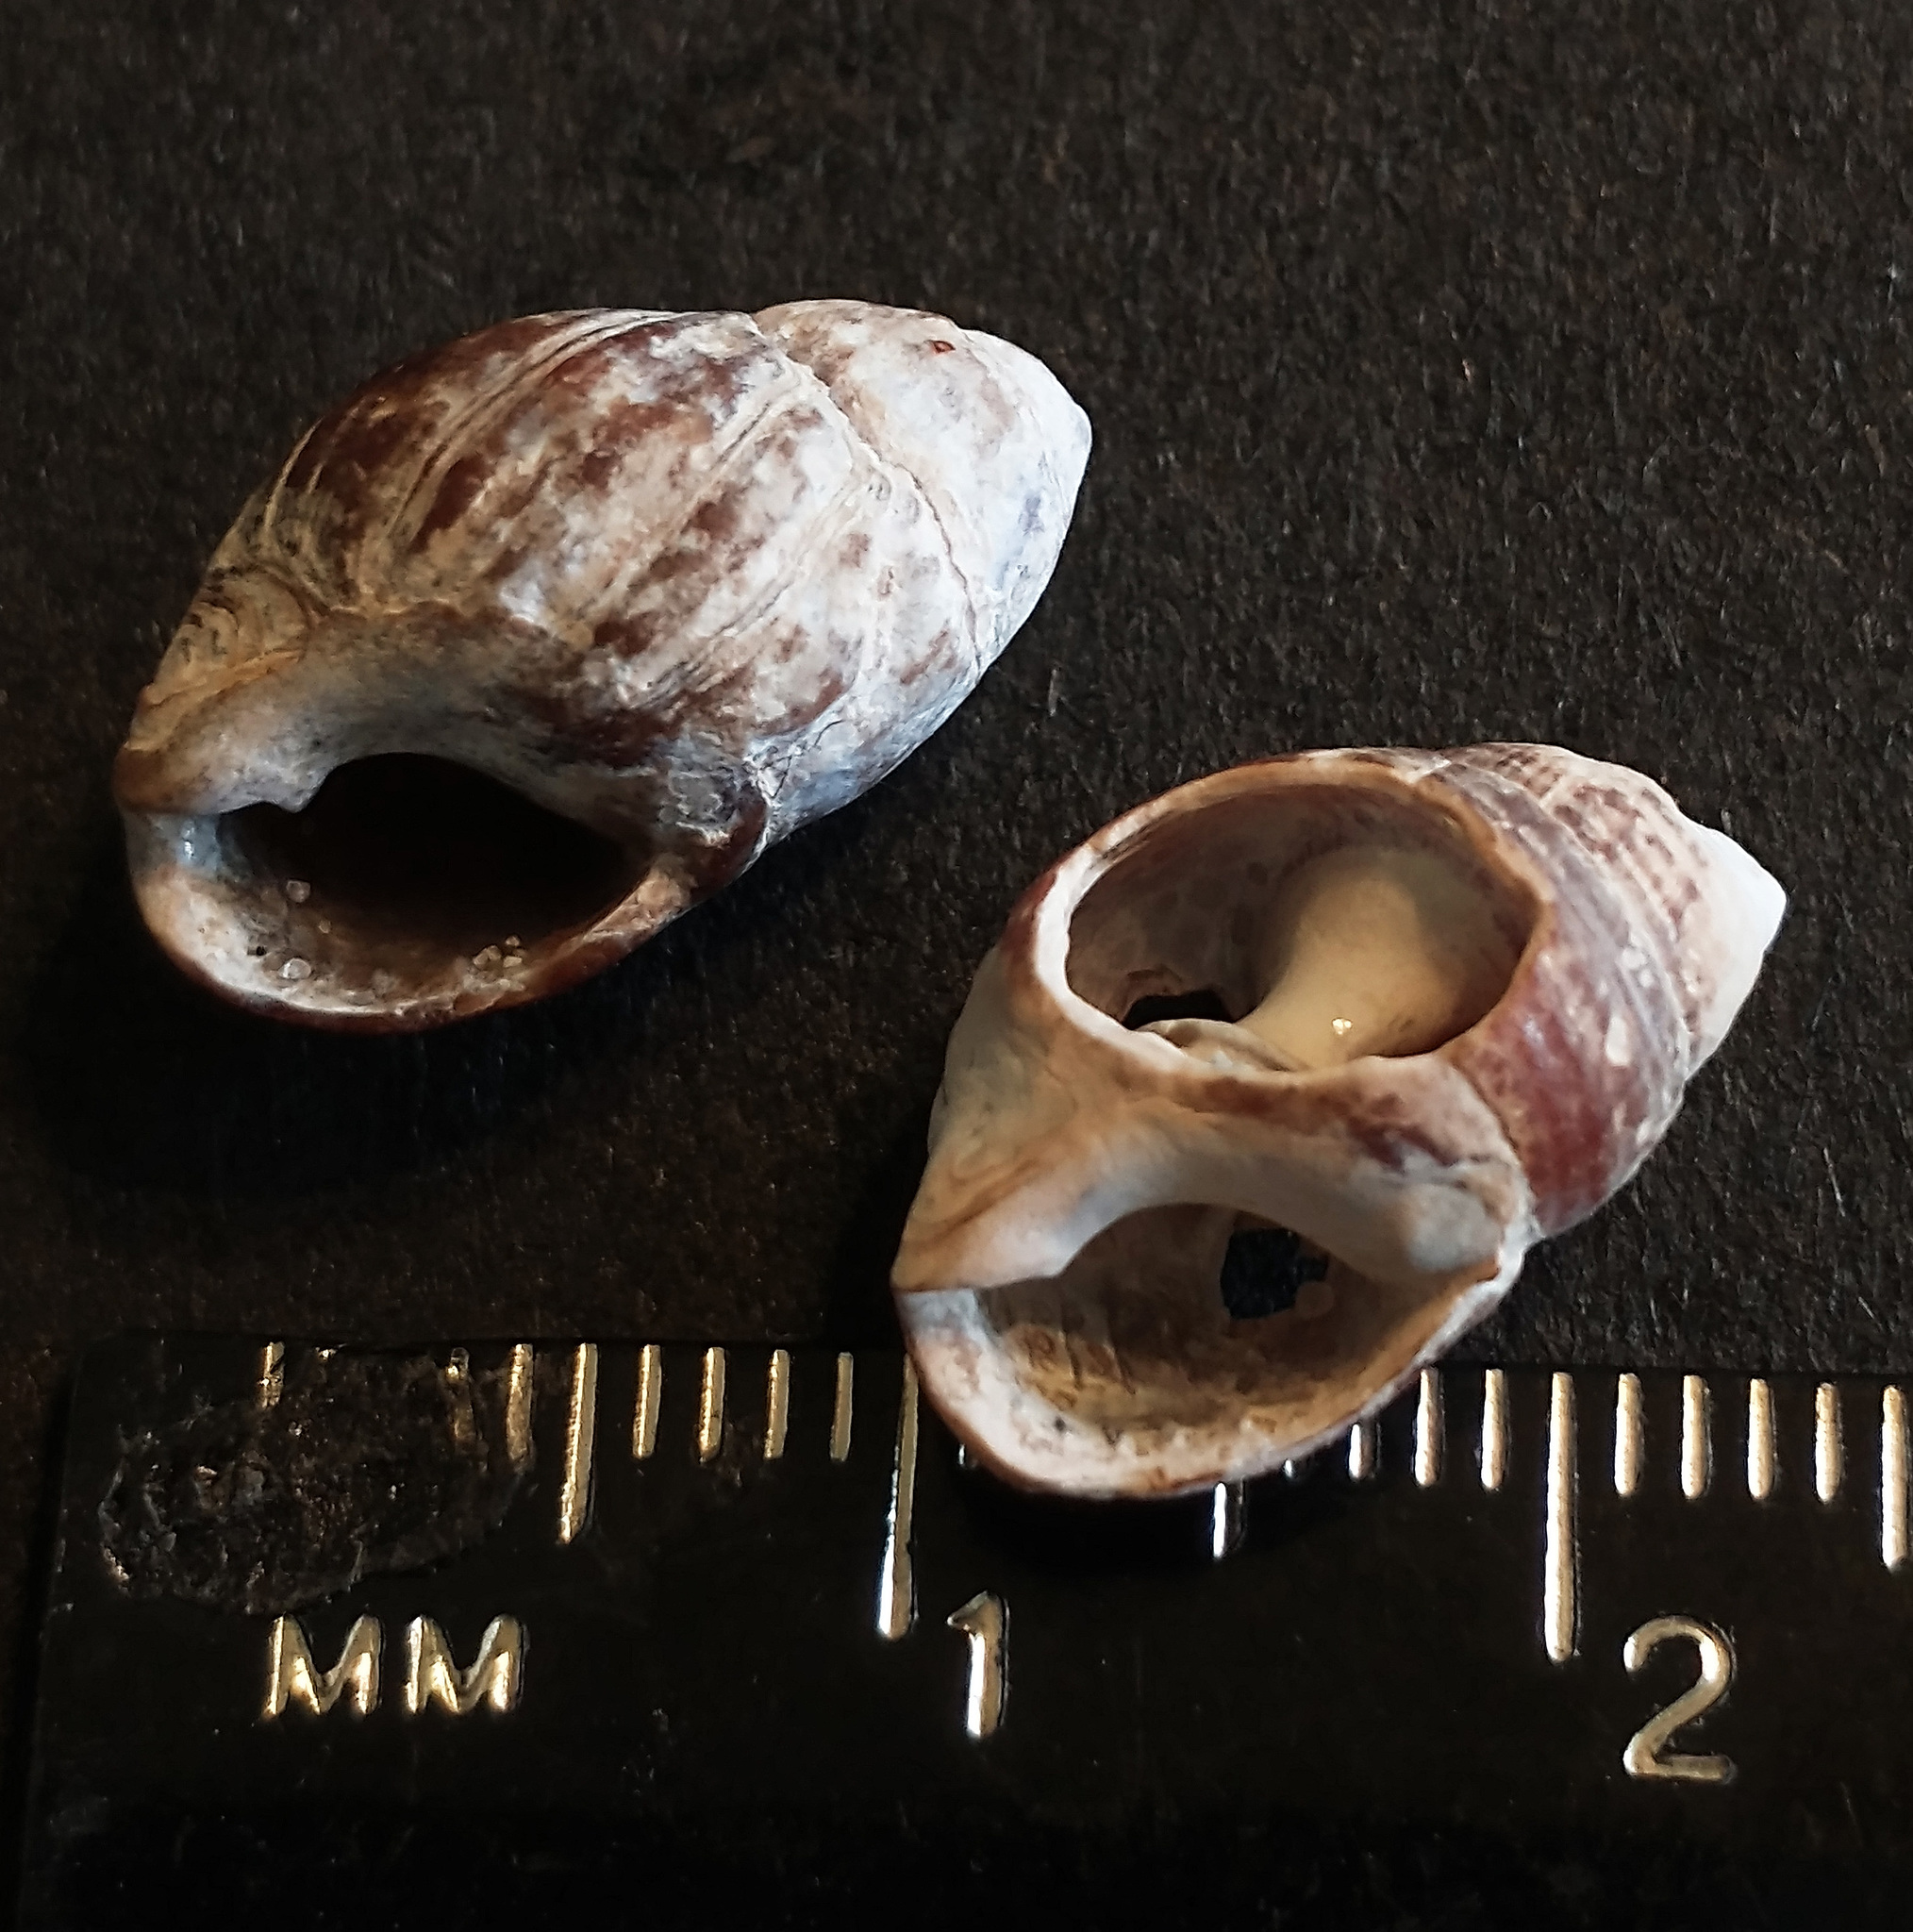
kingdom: Animalia
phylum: Mollusca
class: Gastropoda
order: Neogastropoda
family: Nassariidae
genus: Ilyanassa
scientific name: Ilyanassa obsoleta
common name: Eastern mudsnail
